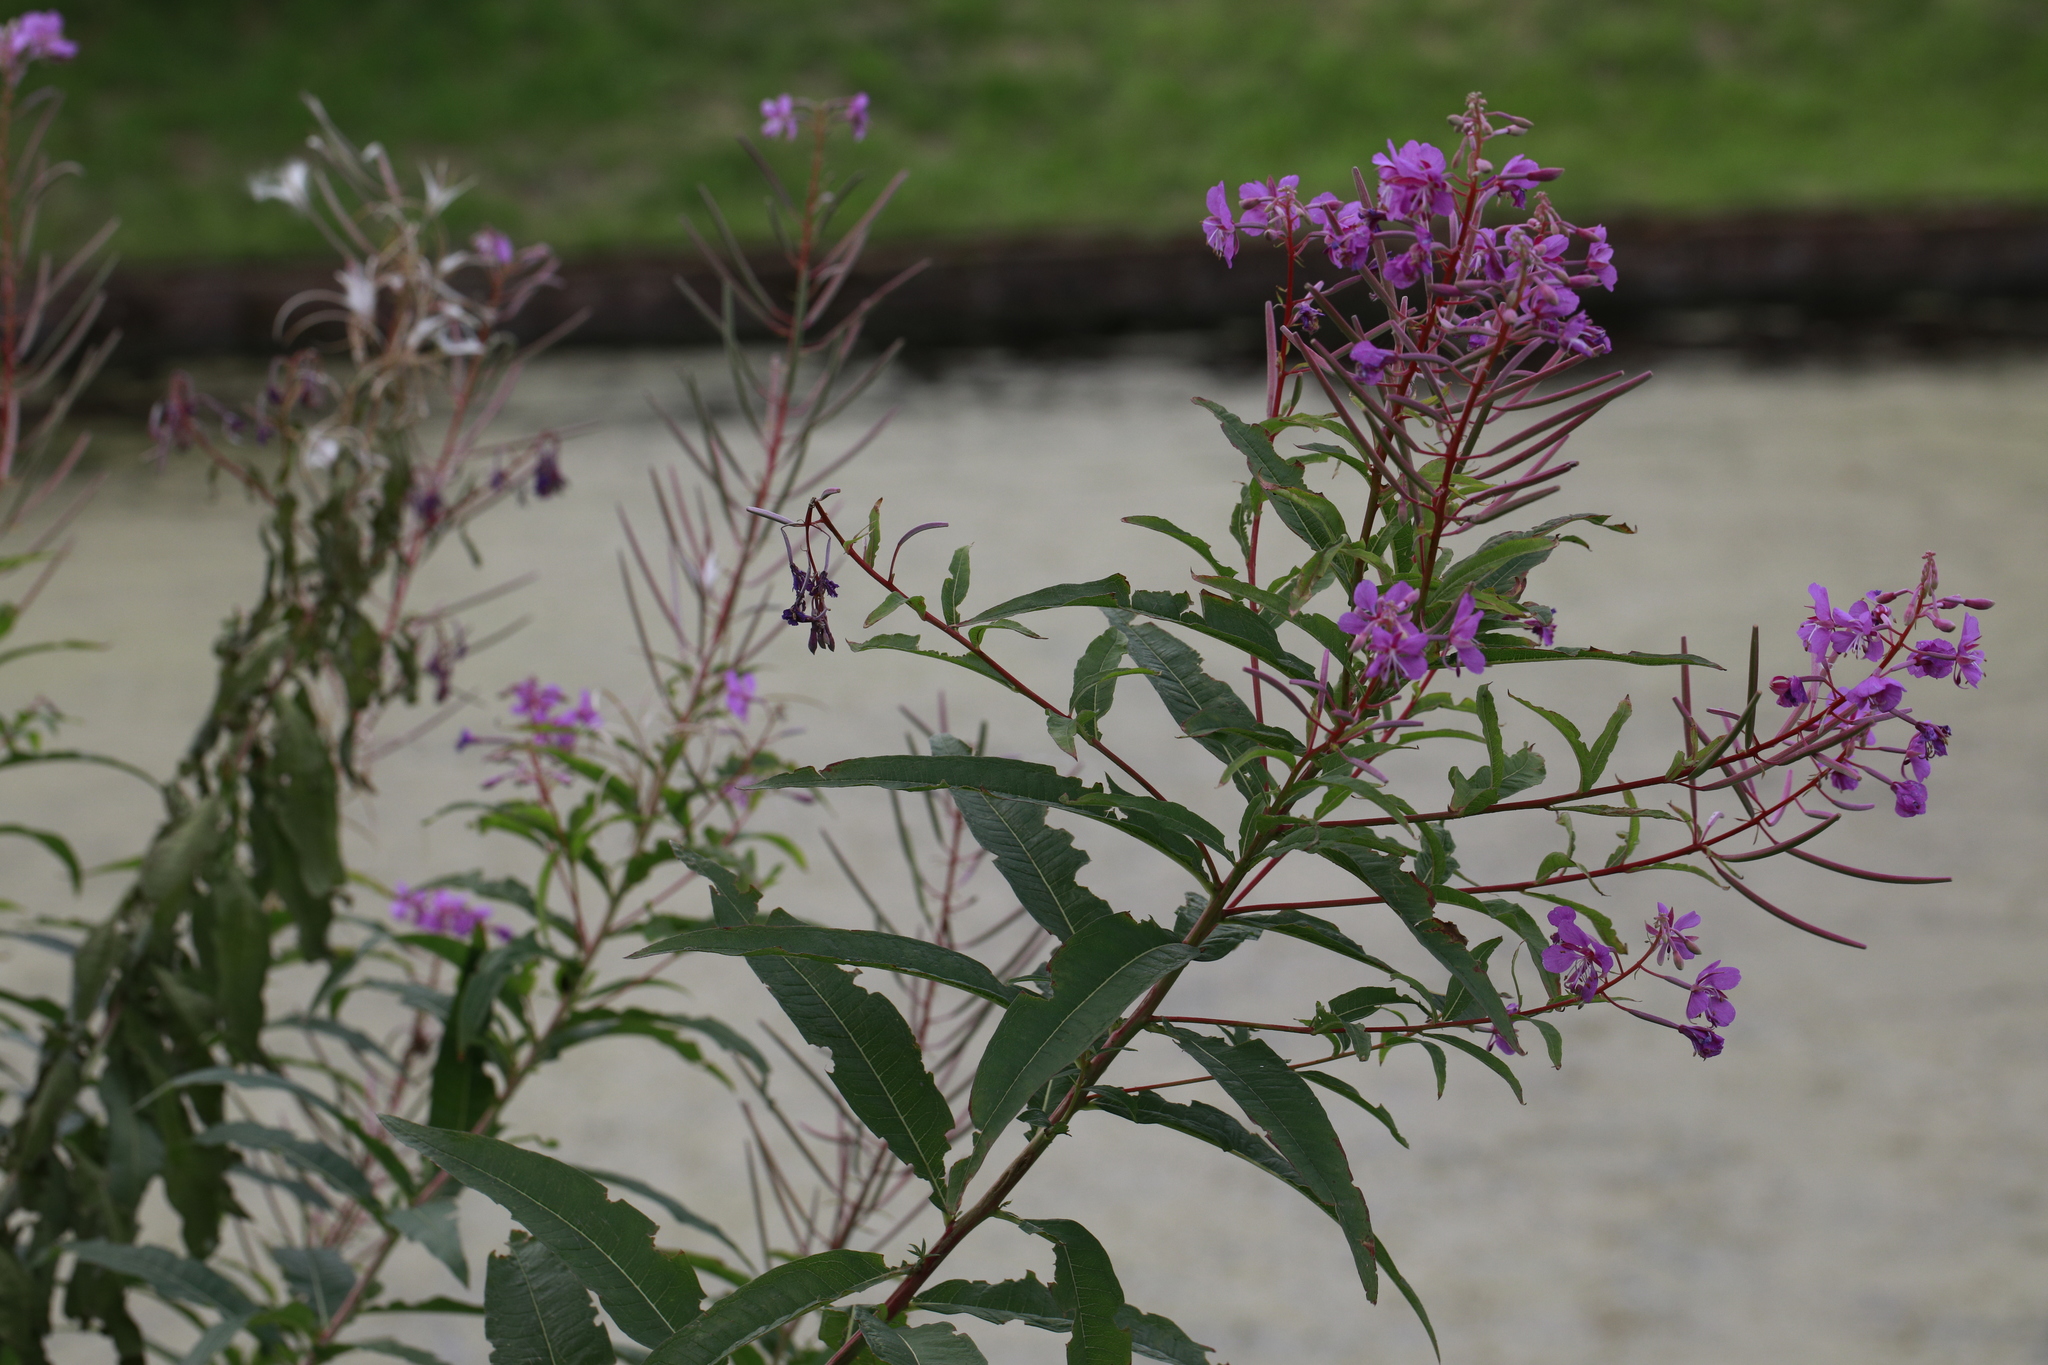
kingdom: Plantae
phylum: Tracheophyta
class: Magnoliopsida
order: Myrtales
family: Onagraceae
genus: Chamaenerion
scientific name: Chamaenerion angustifolium
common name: Fireweed
